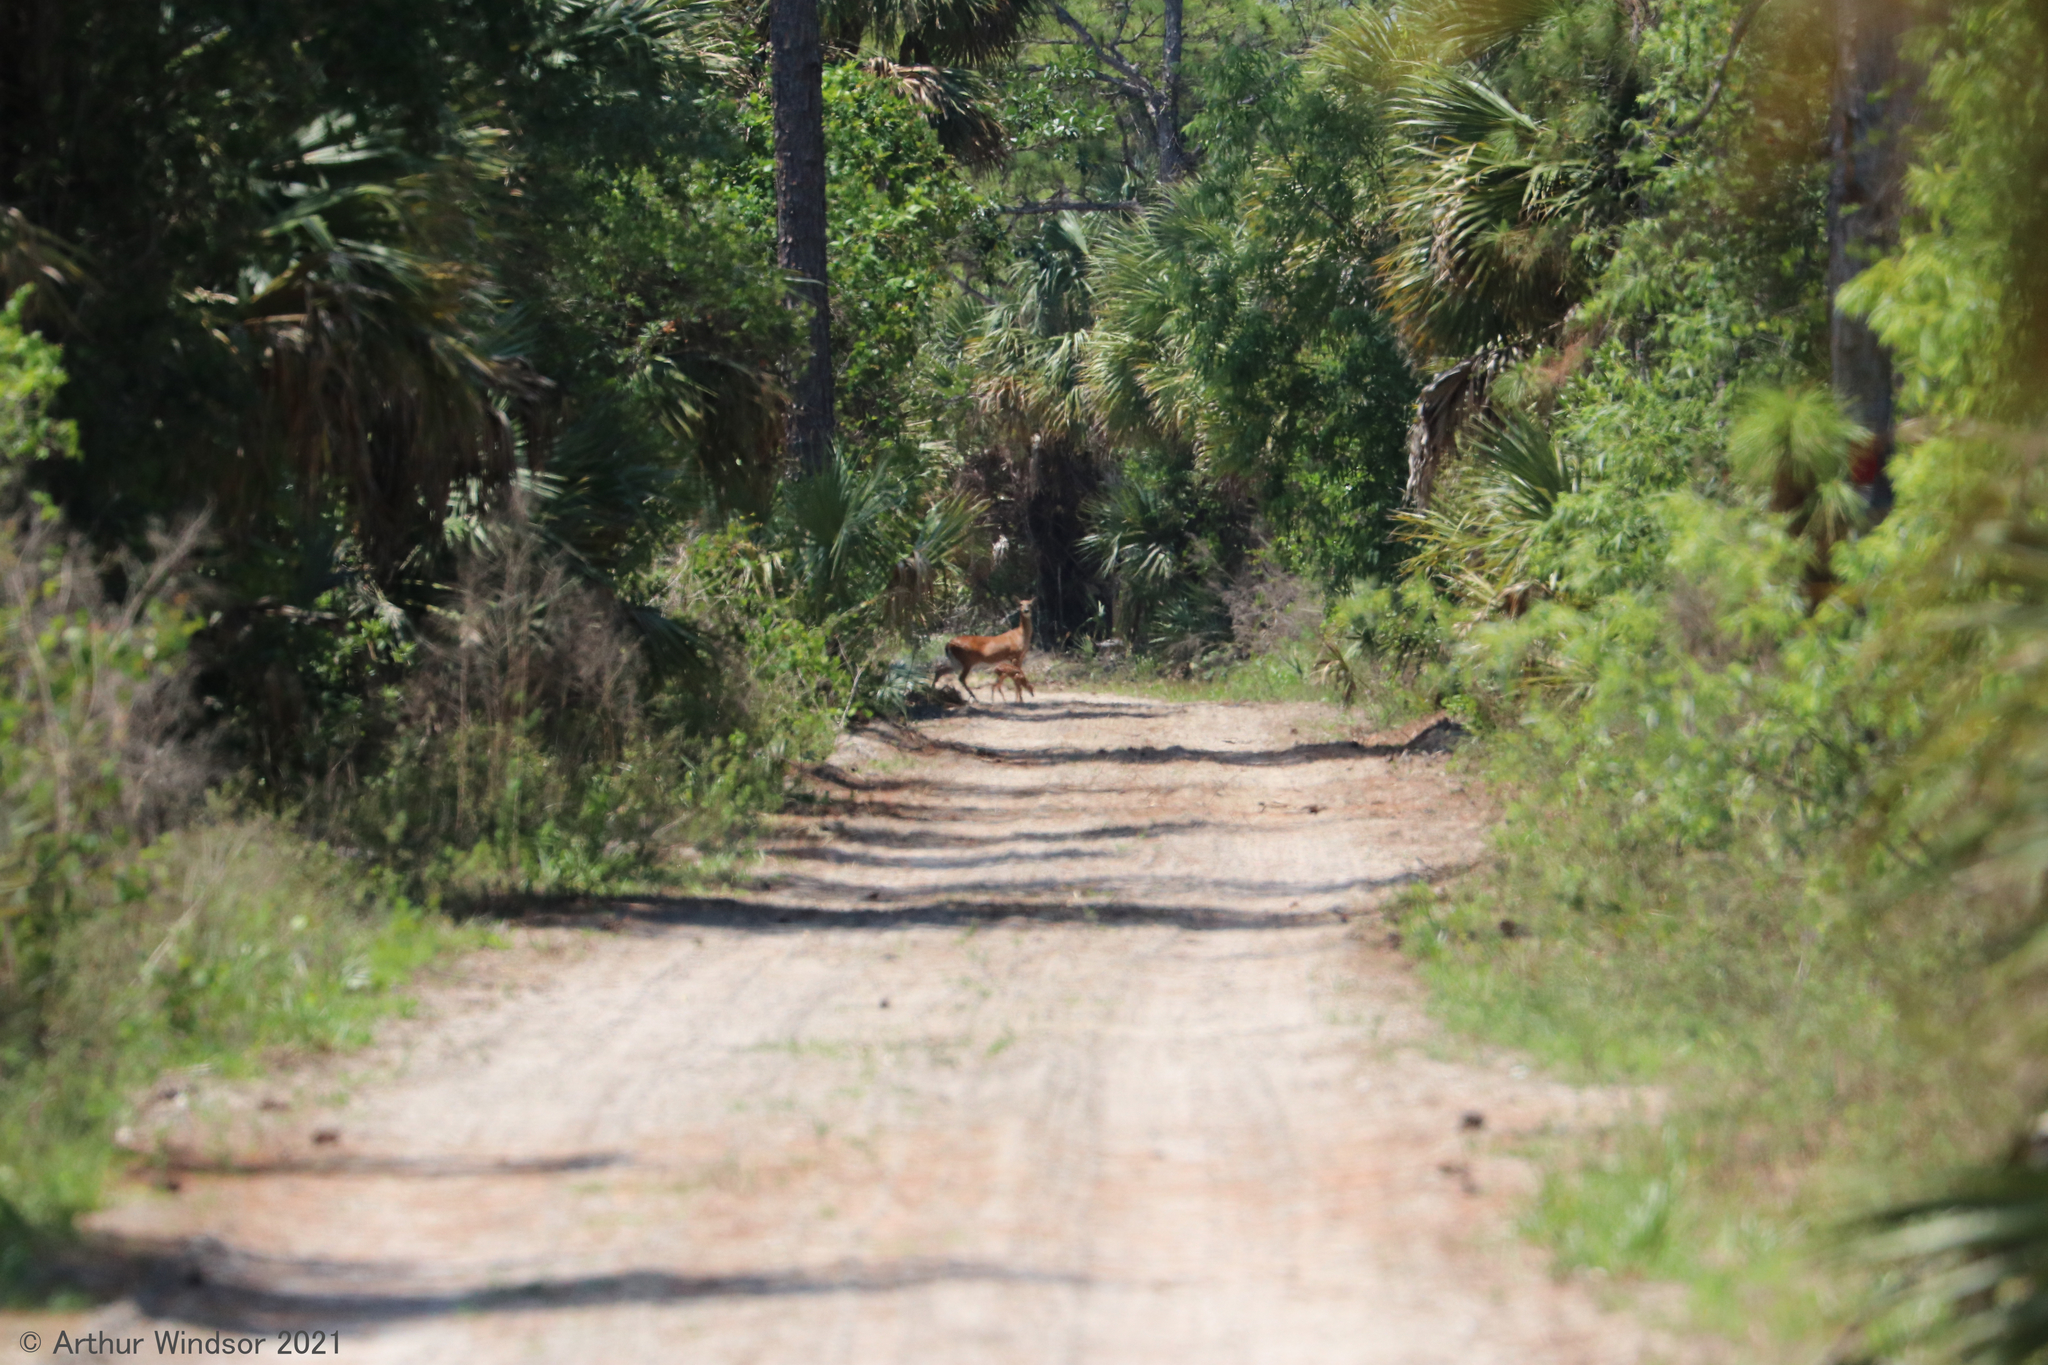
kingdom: Animalia
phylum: Chordata
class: Mammalia
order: Artiodactyla
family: Cervidae
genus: Odocoileus
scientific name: Odocoileus virginianus
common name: White-tailed deer
